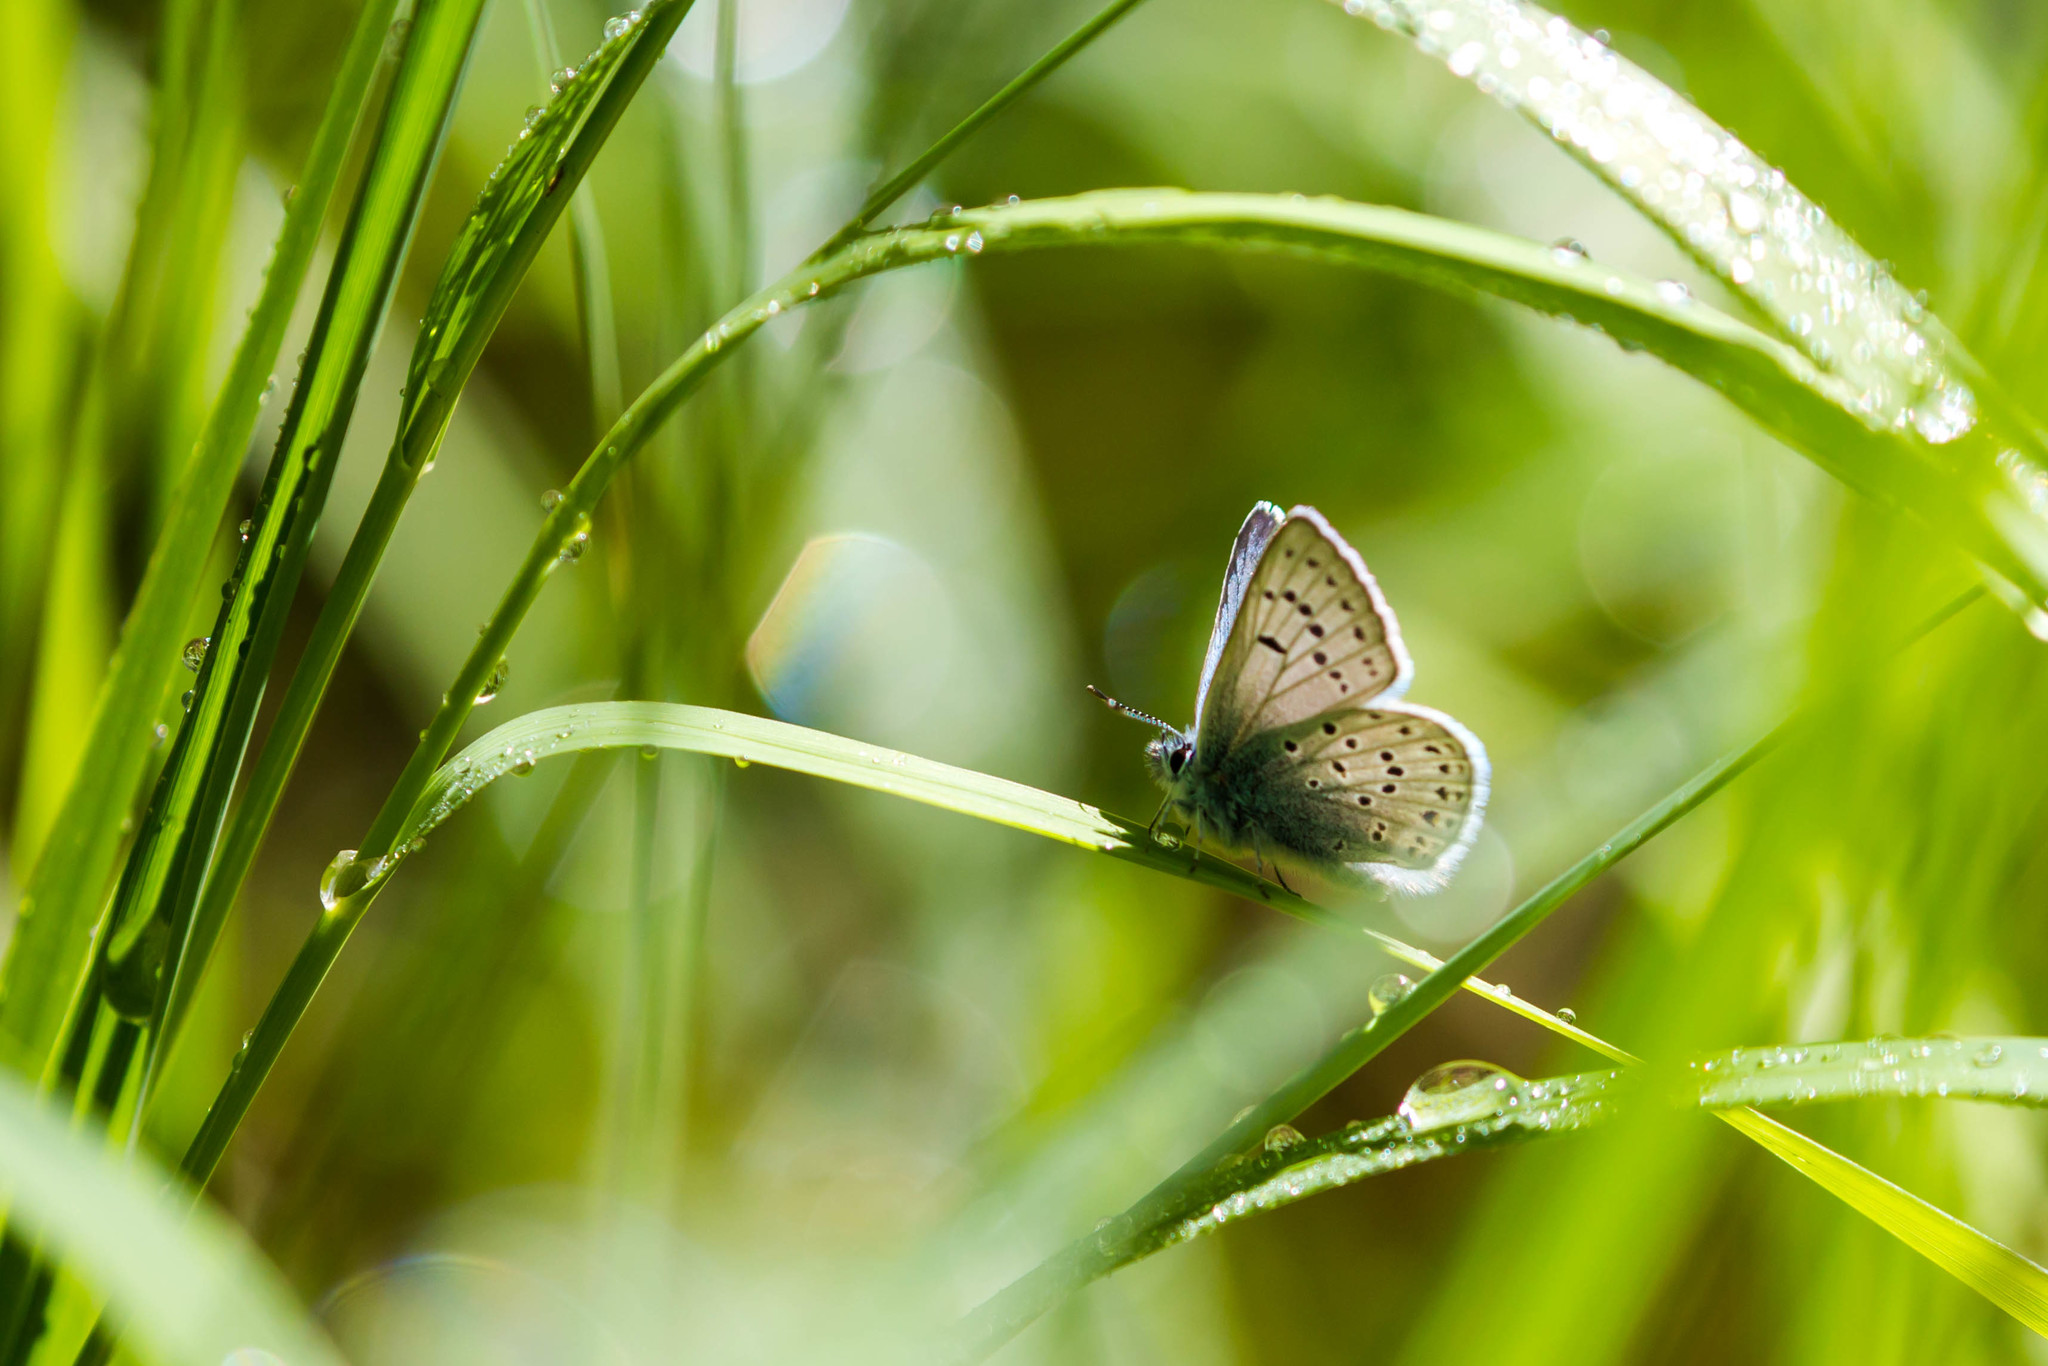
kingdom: Animalia
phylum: Arthropoda
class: Insecta
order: Lepidoptera
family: Lycaenidae
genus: Icaricia
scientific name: Icaricia saepiolus
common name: Greenish blue
